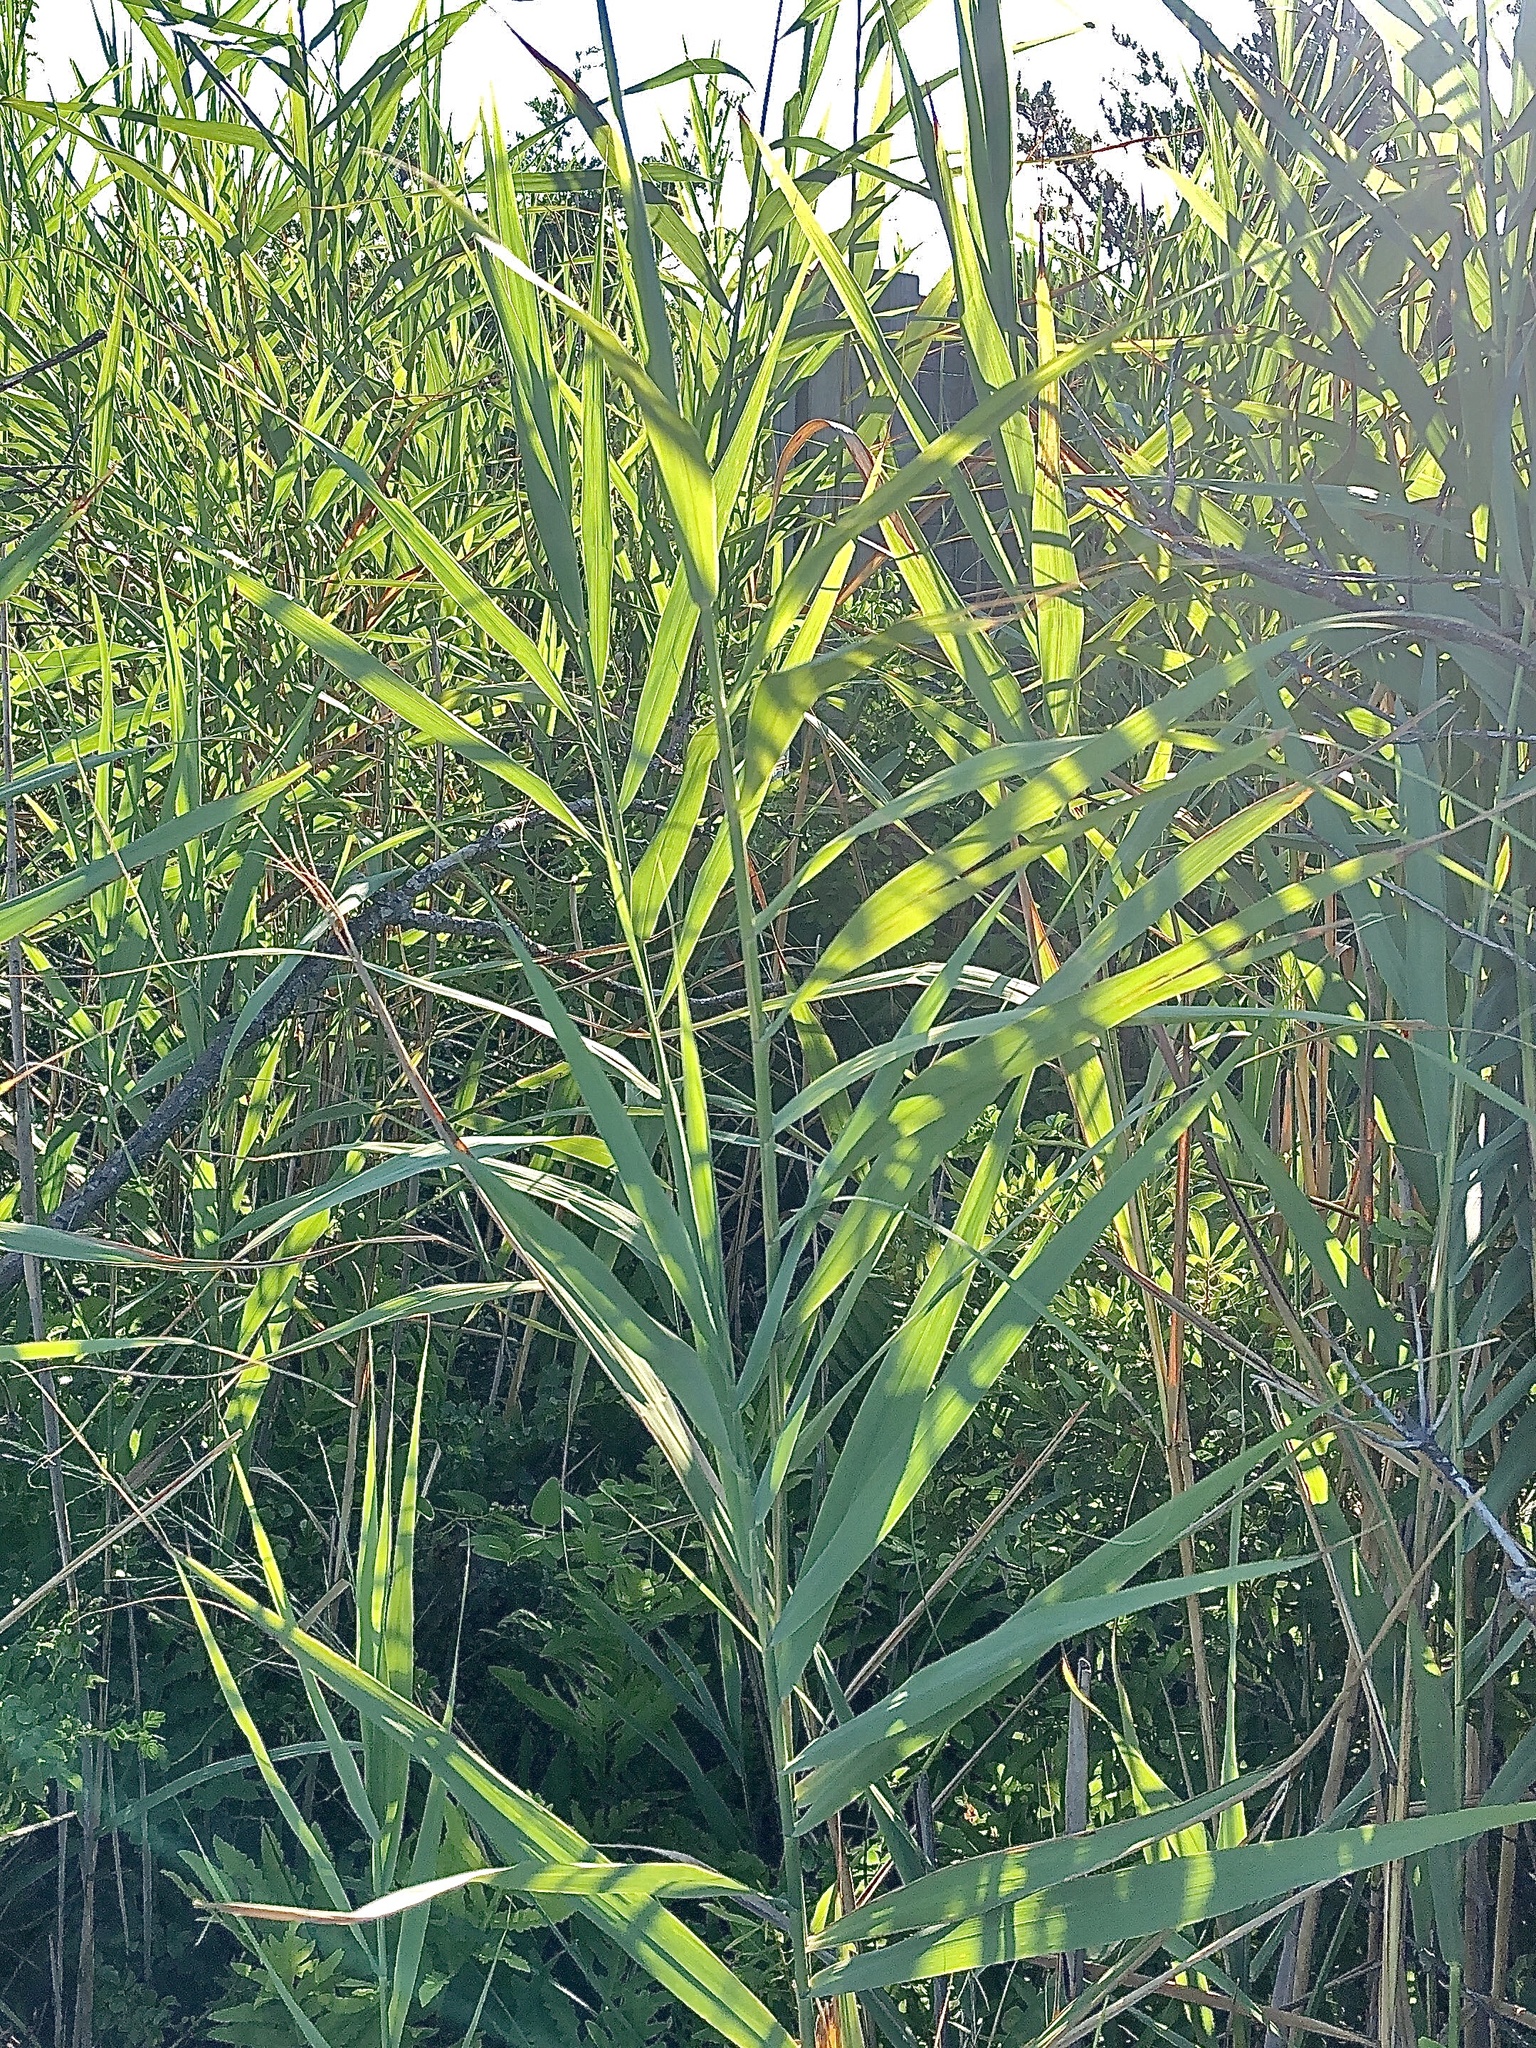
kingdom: Plantae
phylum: Tracheophyta
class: Liliopsida
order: Poales
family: Poaceae
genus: Phragmites
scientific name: Phragmites australis
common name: Common reed
